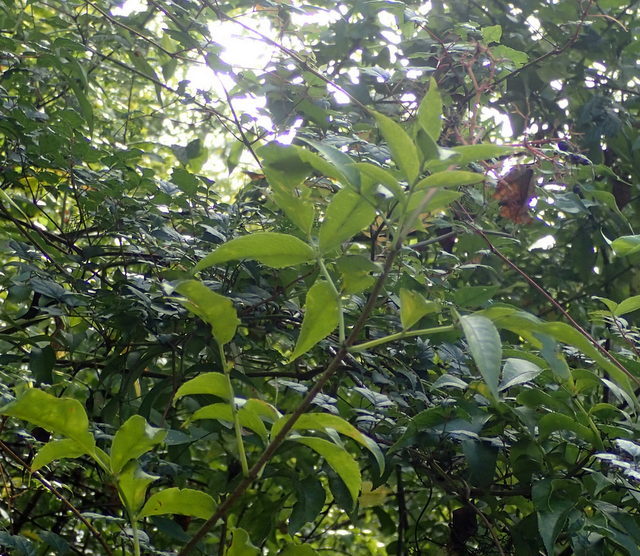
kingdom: Plantae
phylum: Tracheophyta
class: Magnoliopsida
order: Dipsacales
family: Viburnaceae
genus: Sambucus
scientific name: Sambucus canadensis
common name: American elder
